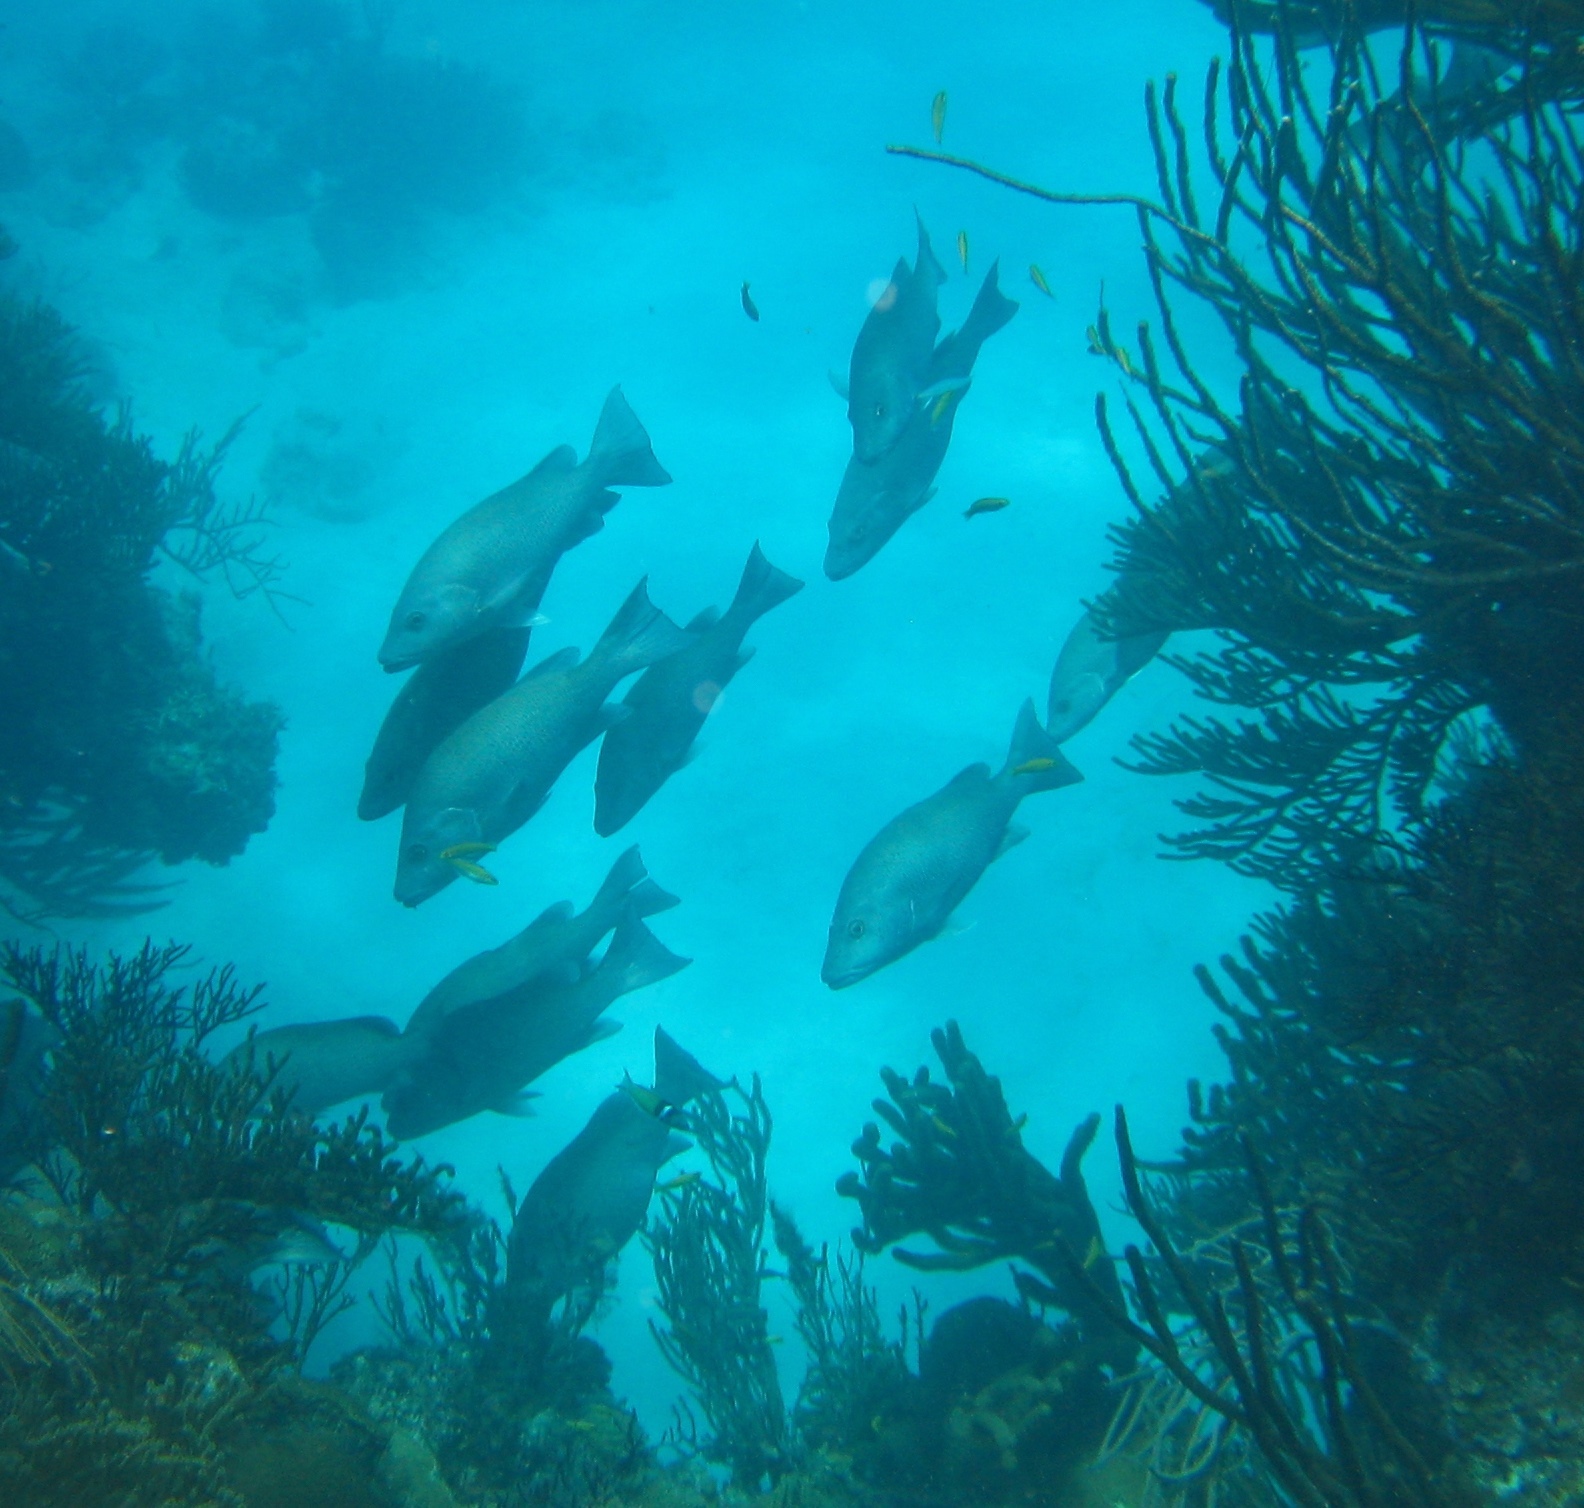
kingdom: Animalia
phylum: Chordata
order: Perciformes
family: Lutjanidae
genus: Lutjanus
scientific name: Lutjanus griseus
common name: Gray snapper
